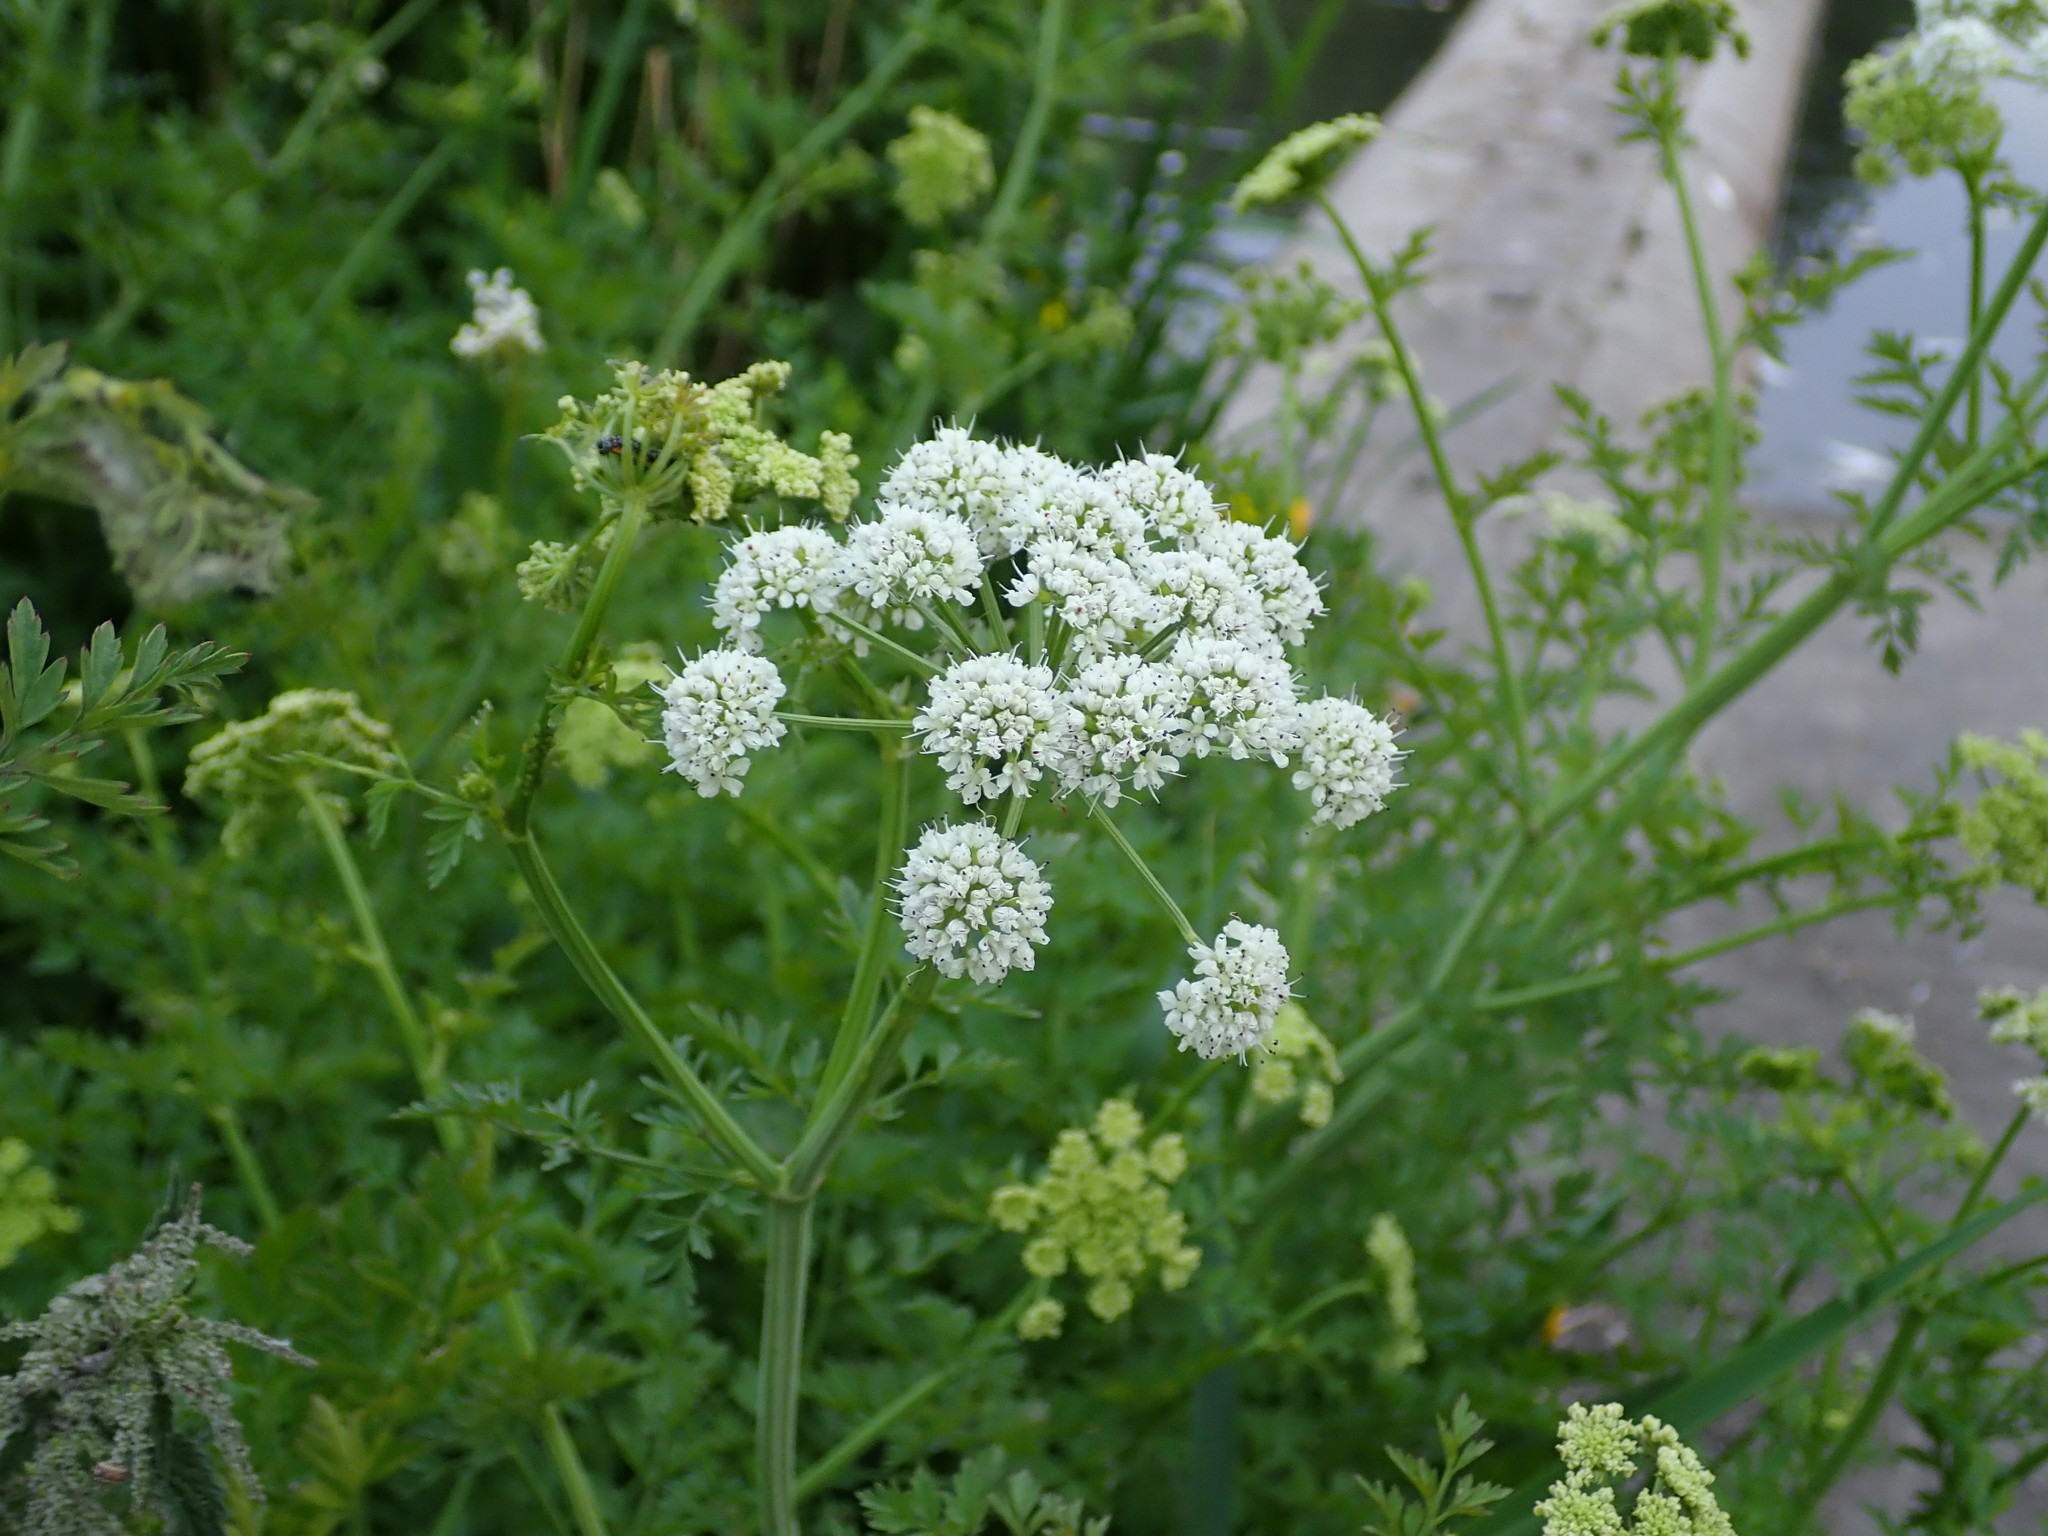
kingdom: Plantae
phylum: Tracheophyta
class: Magnoliopsida
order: Apiales
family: Apiaceae
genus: Oenanthe
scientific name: Oenanthe crocata
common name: Hemlock water-dropwort
